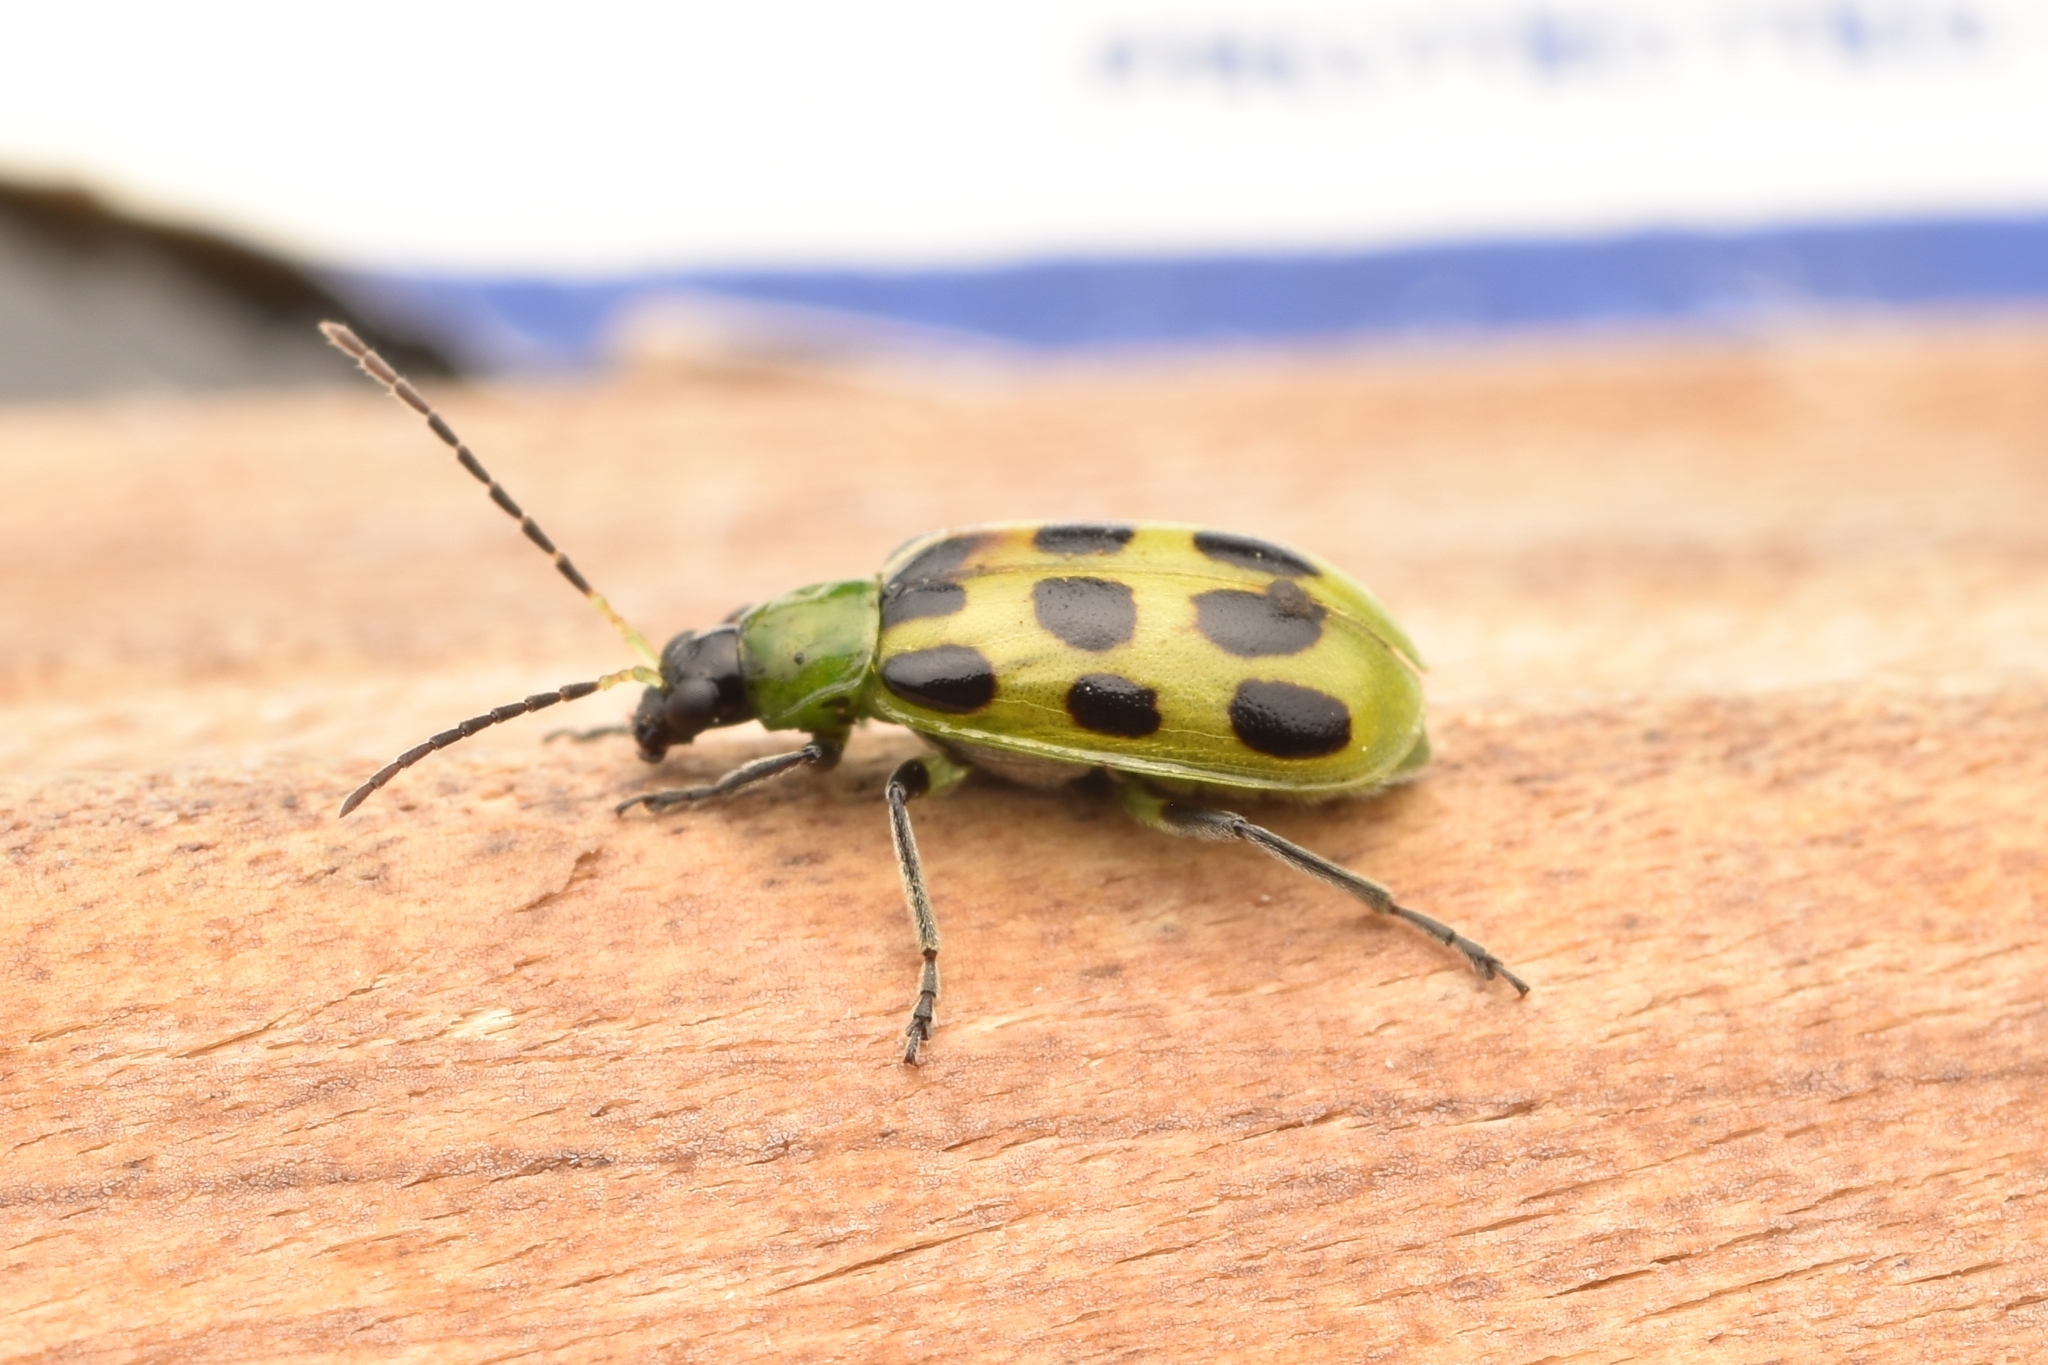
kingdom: Animalia
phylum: Arthropoda
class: Insecta
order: Coleoptera
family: Chrysomelidae
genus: Diabrotica
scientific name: Diabrotica undecimpunctata
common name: Spotted cucumber beetle
